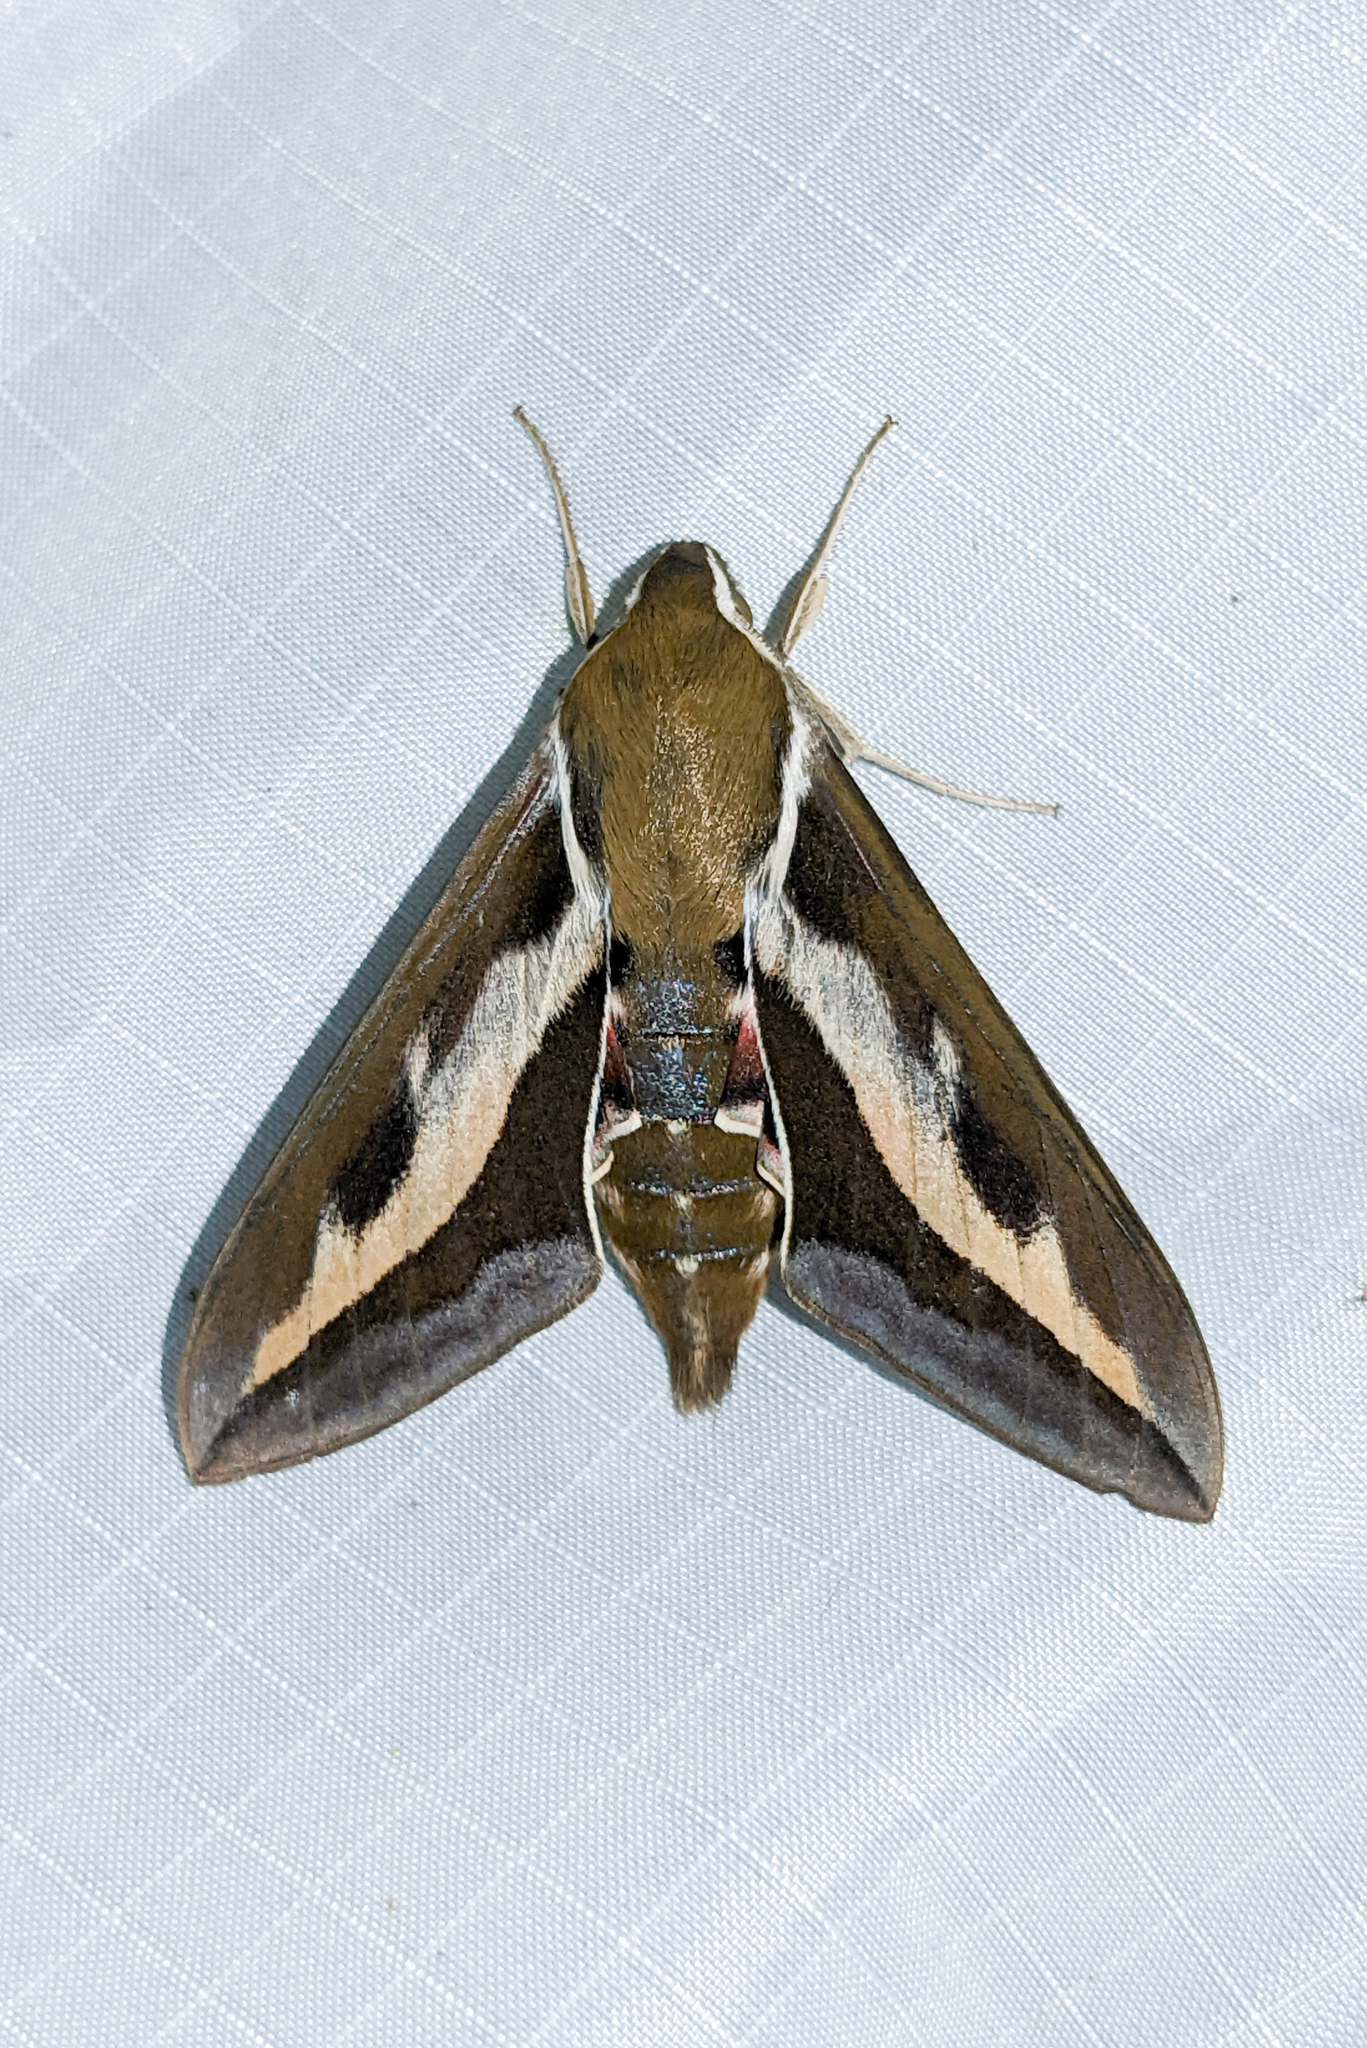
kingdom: Animalia
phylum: Arthropoda
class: Insecta
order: Lepidoptera
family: Sphingidae
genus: Hyles
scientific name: Hyles gallii
